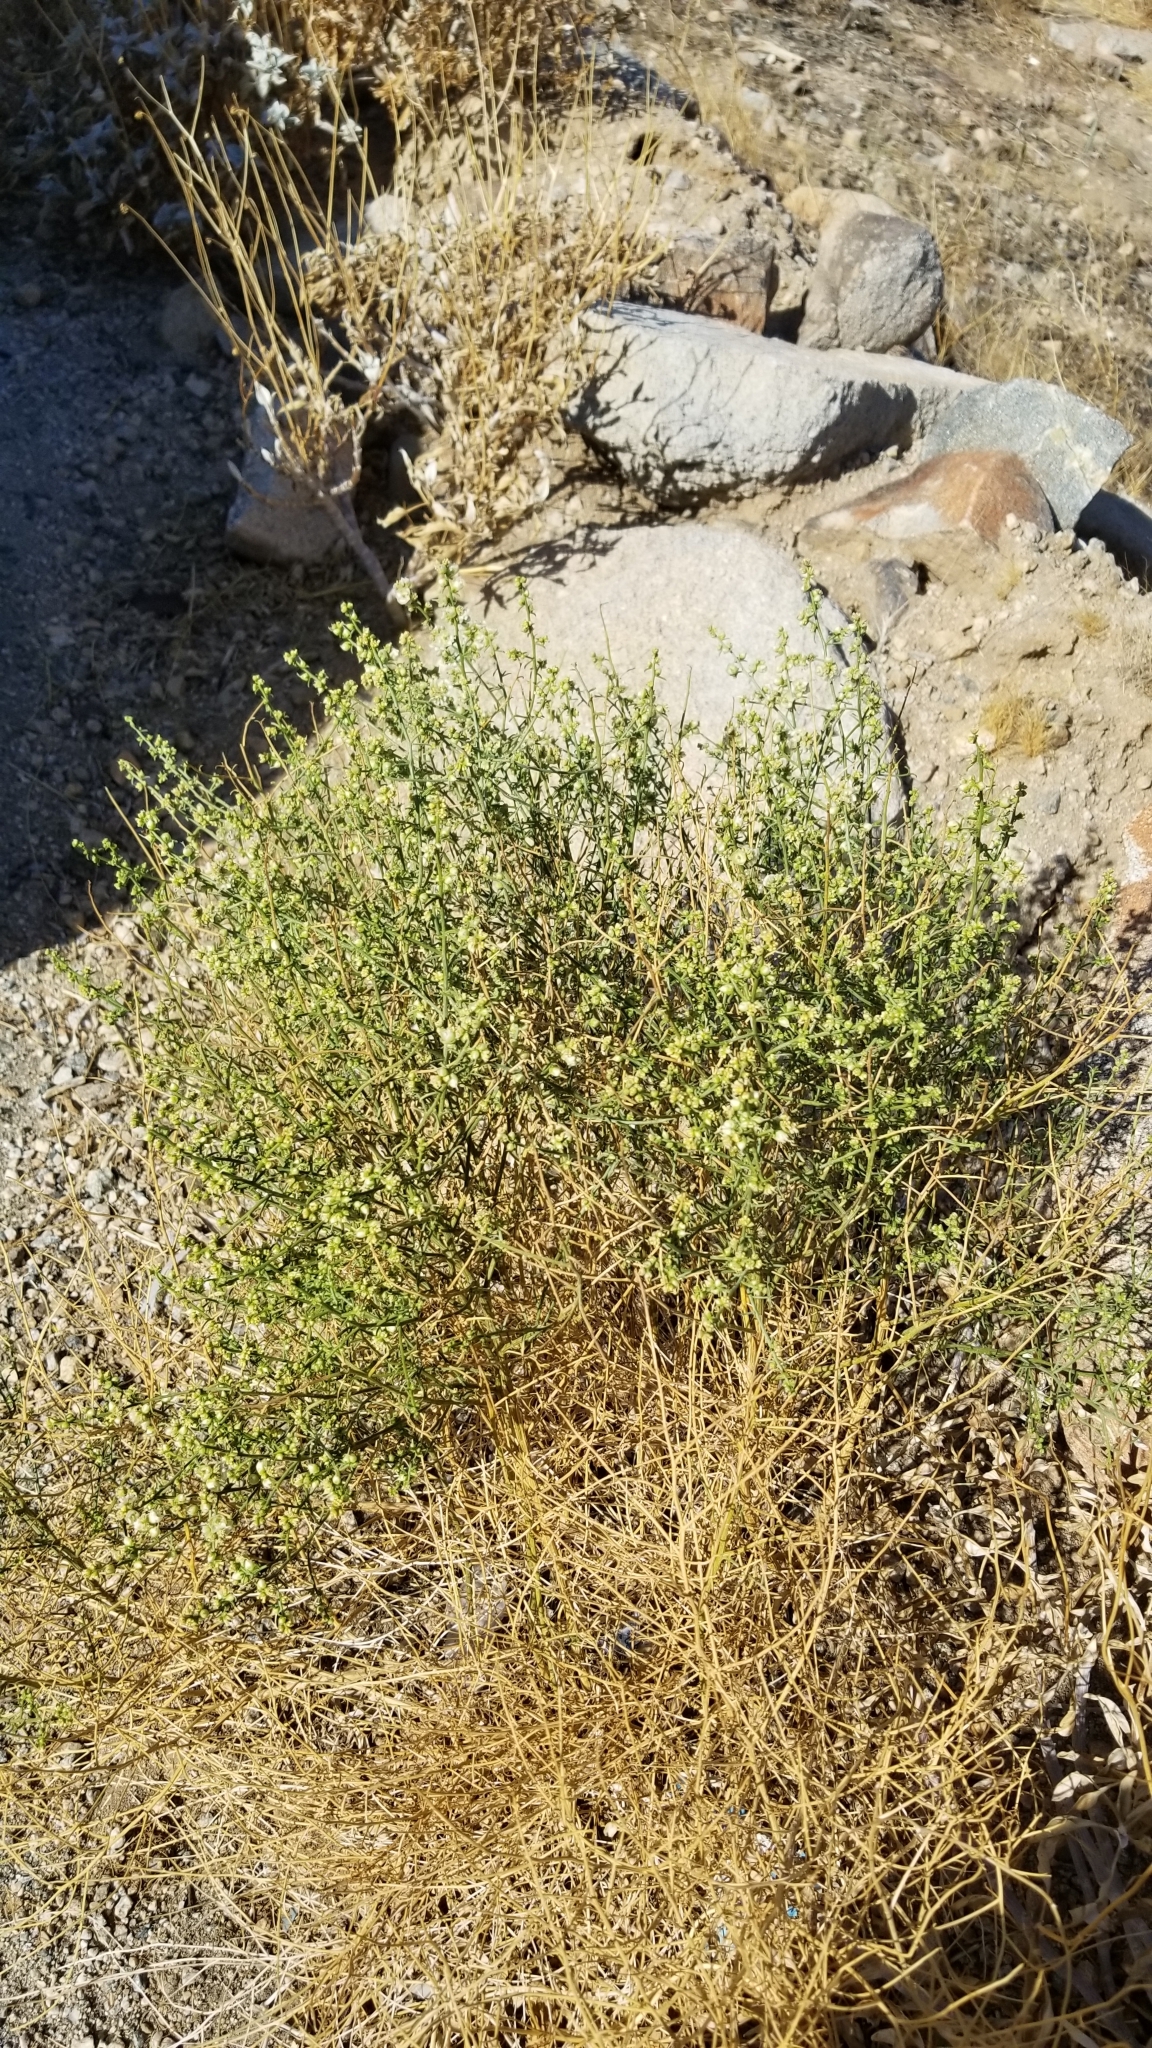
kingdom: Plantae
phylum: Tracheophyta
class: Magnoliopsida
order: Asterales
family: Asteraceae
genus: Ambrosia
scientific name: Ambrosia salsola
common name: Burrobrush
